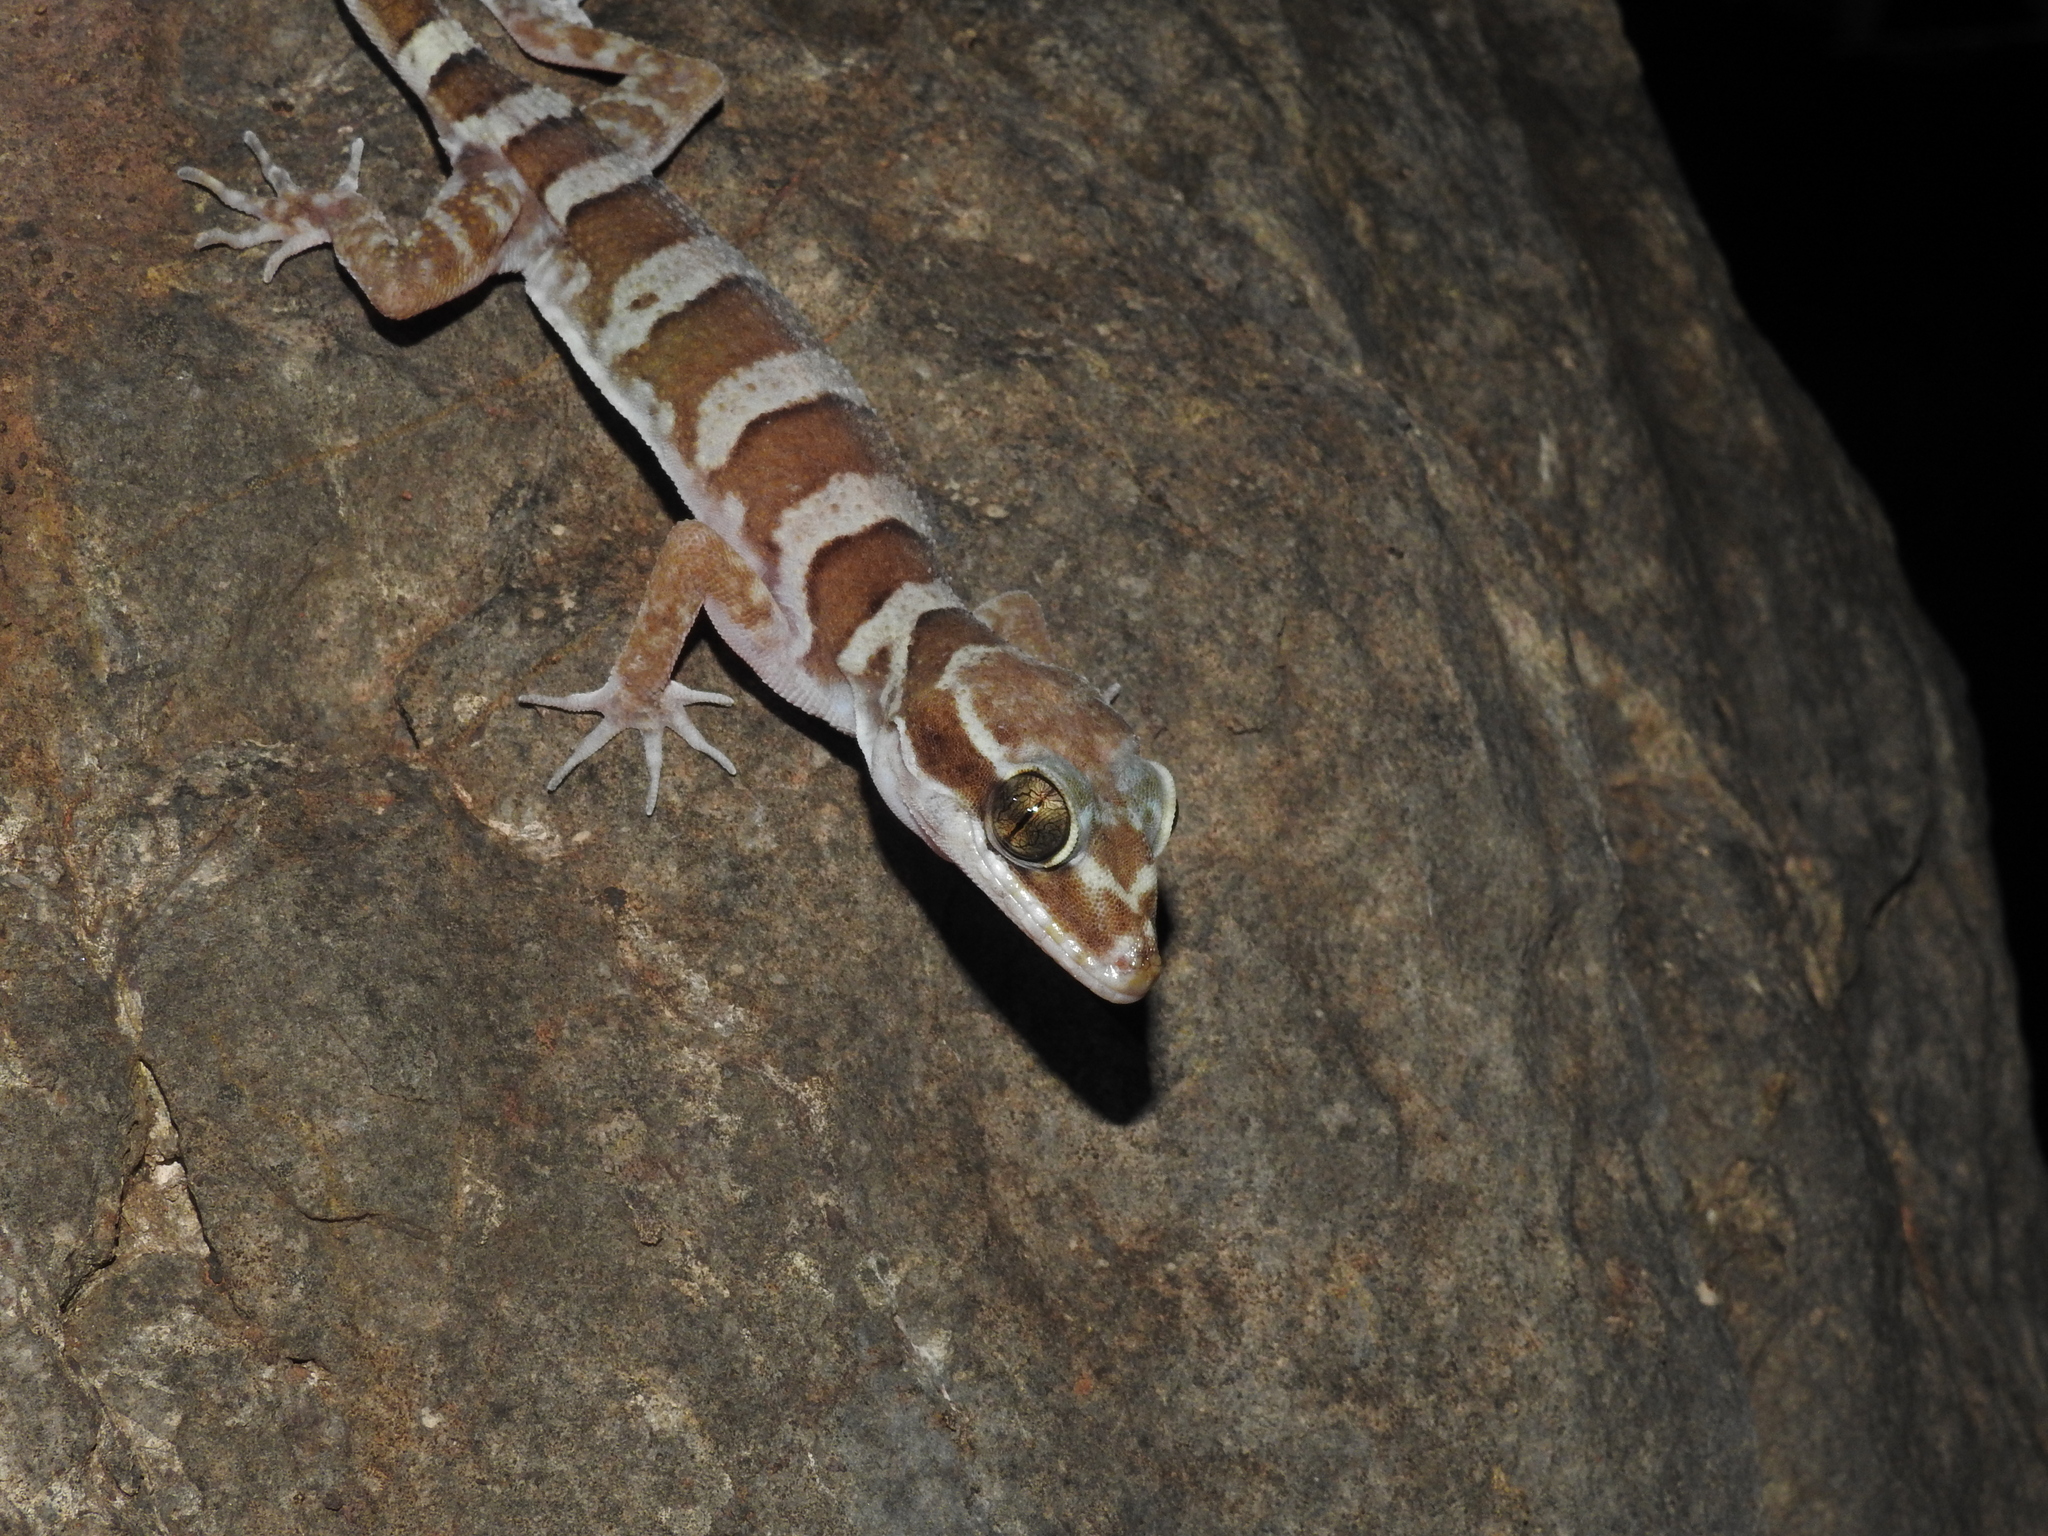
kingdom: Animalia
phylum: Chordata
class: Squamata
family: Gekkonidae
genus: Cyrtodactylus
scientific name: Cyrtodactylus mcdonaldi
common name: Mcdonald's ring-tailed gecko
